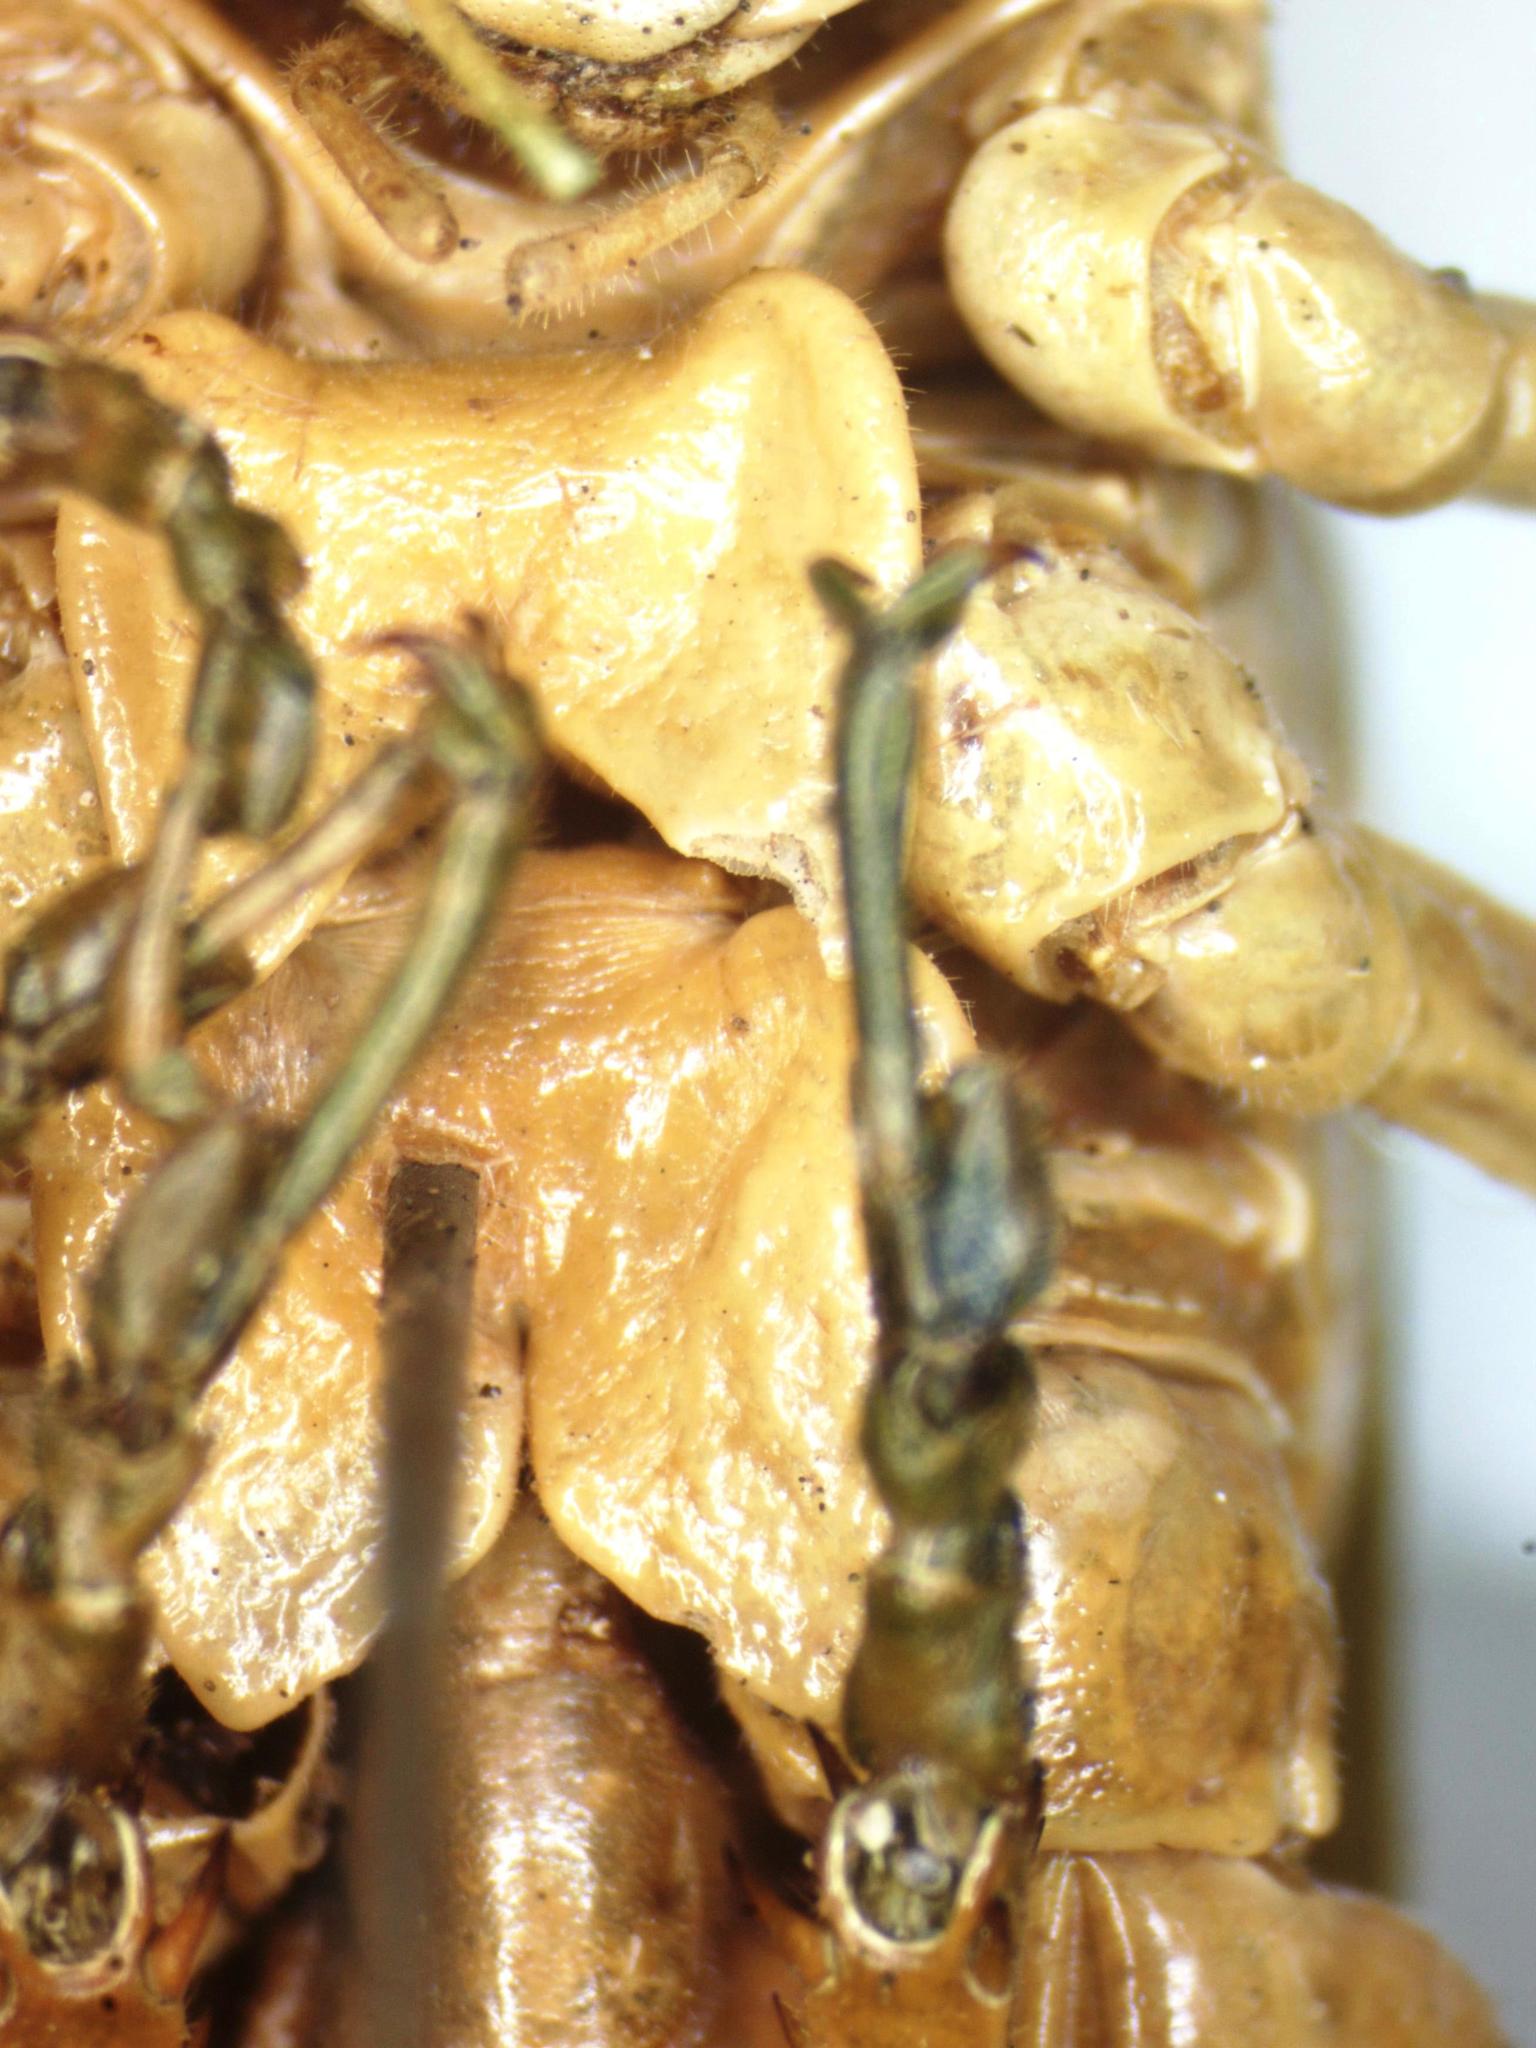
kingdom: Animalia
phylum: Arthropoda
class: Insecta
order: Orthoptera
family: Tettigoniidae
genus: Philophyllia
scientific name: Philophyllia guttulata
